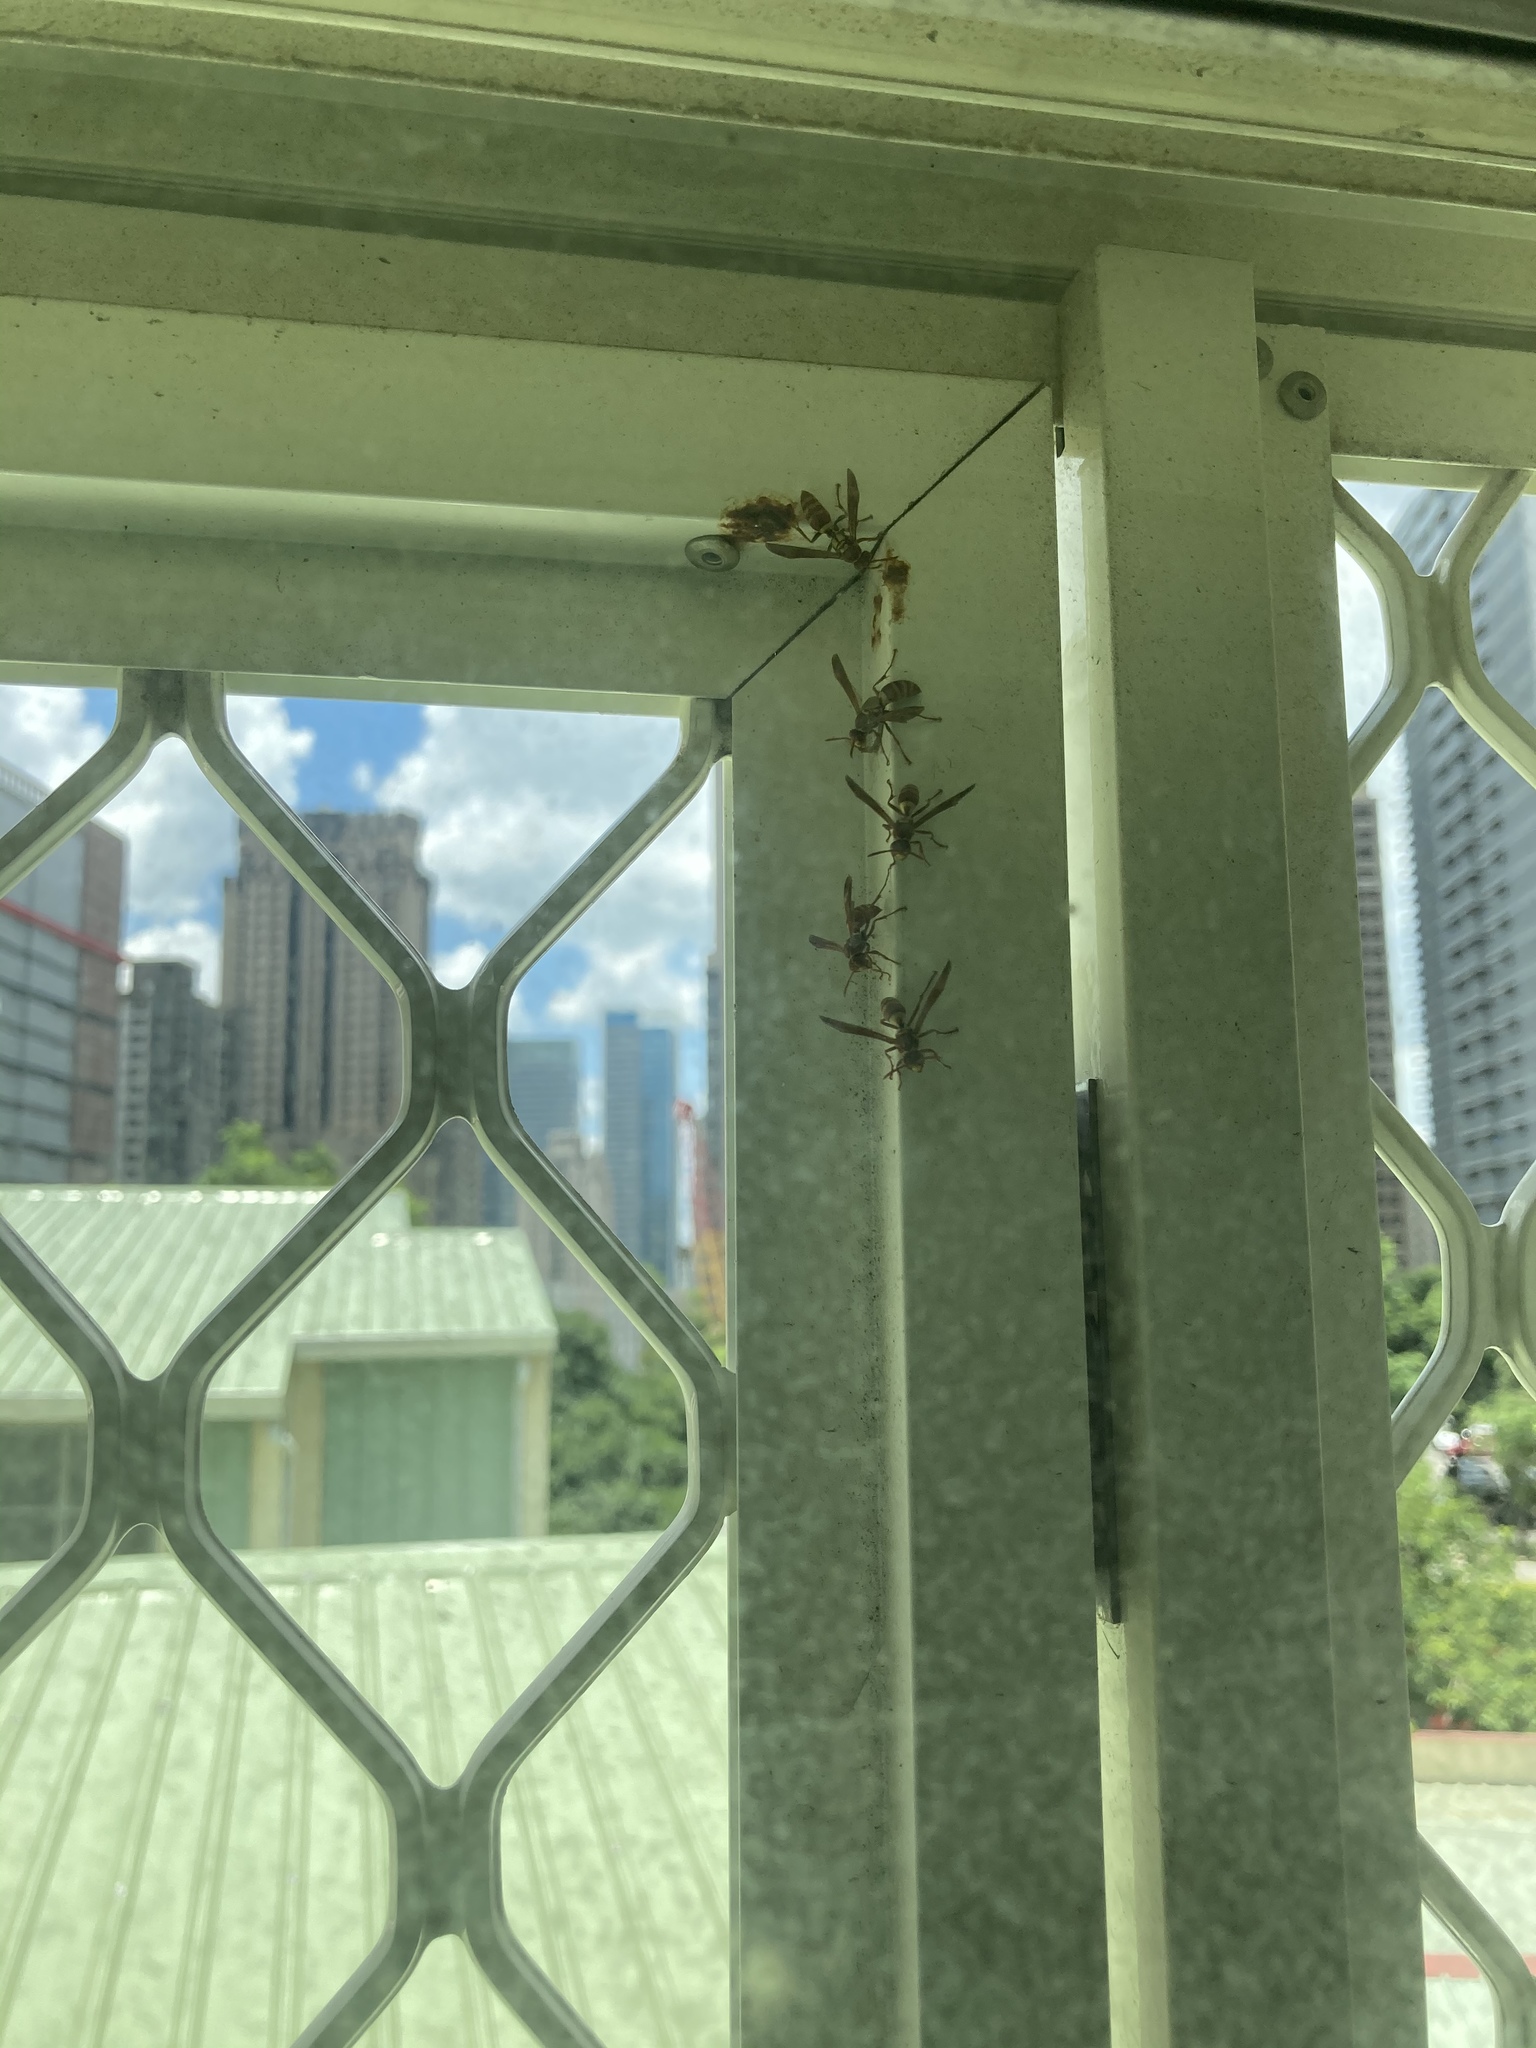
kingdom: Animalia
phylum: Arthropoda
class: Insecta
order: Hymenoptera
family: Eumenidae
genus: Polistes
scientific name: Polistes shirakii
